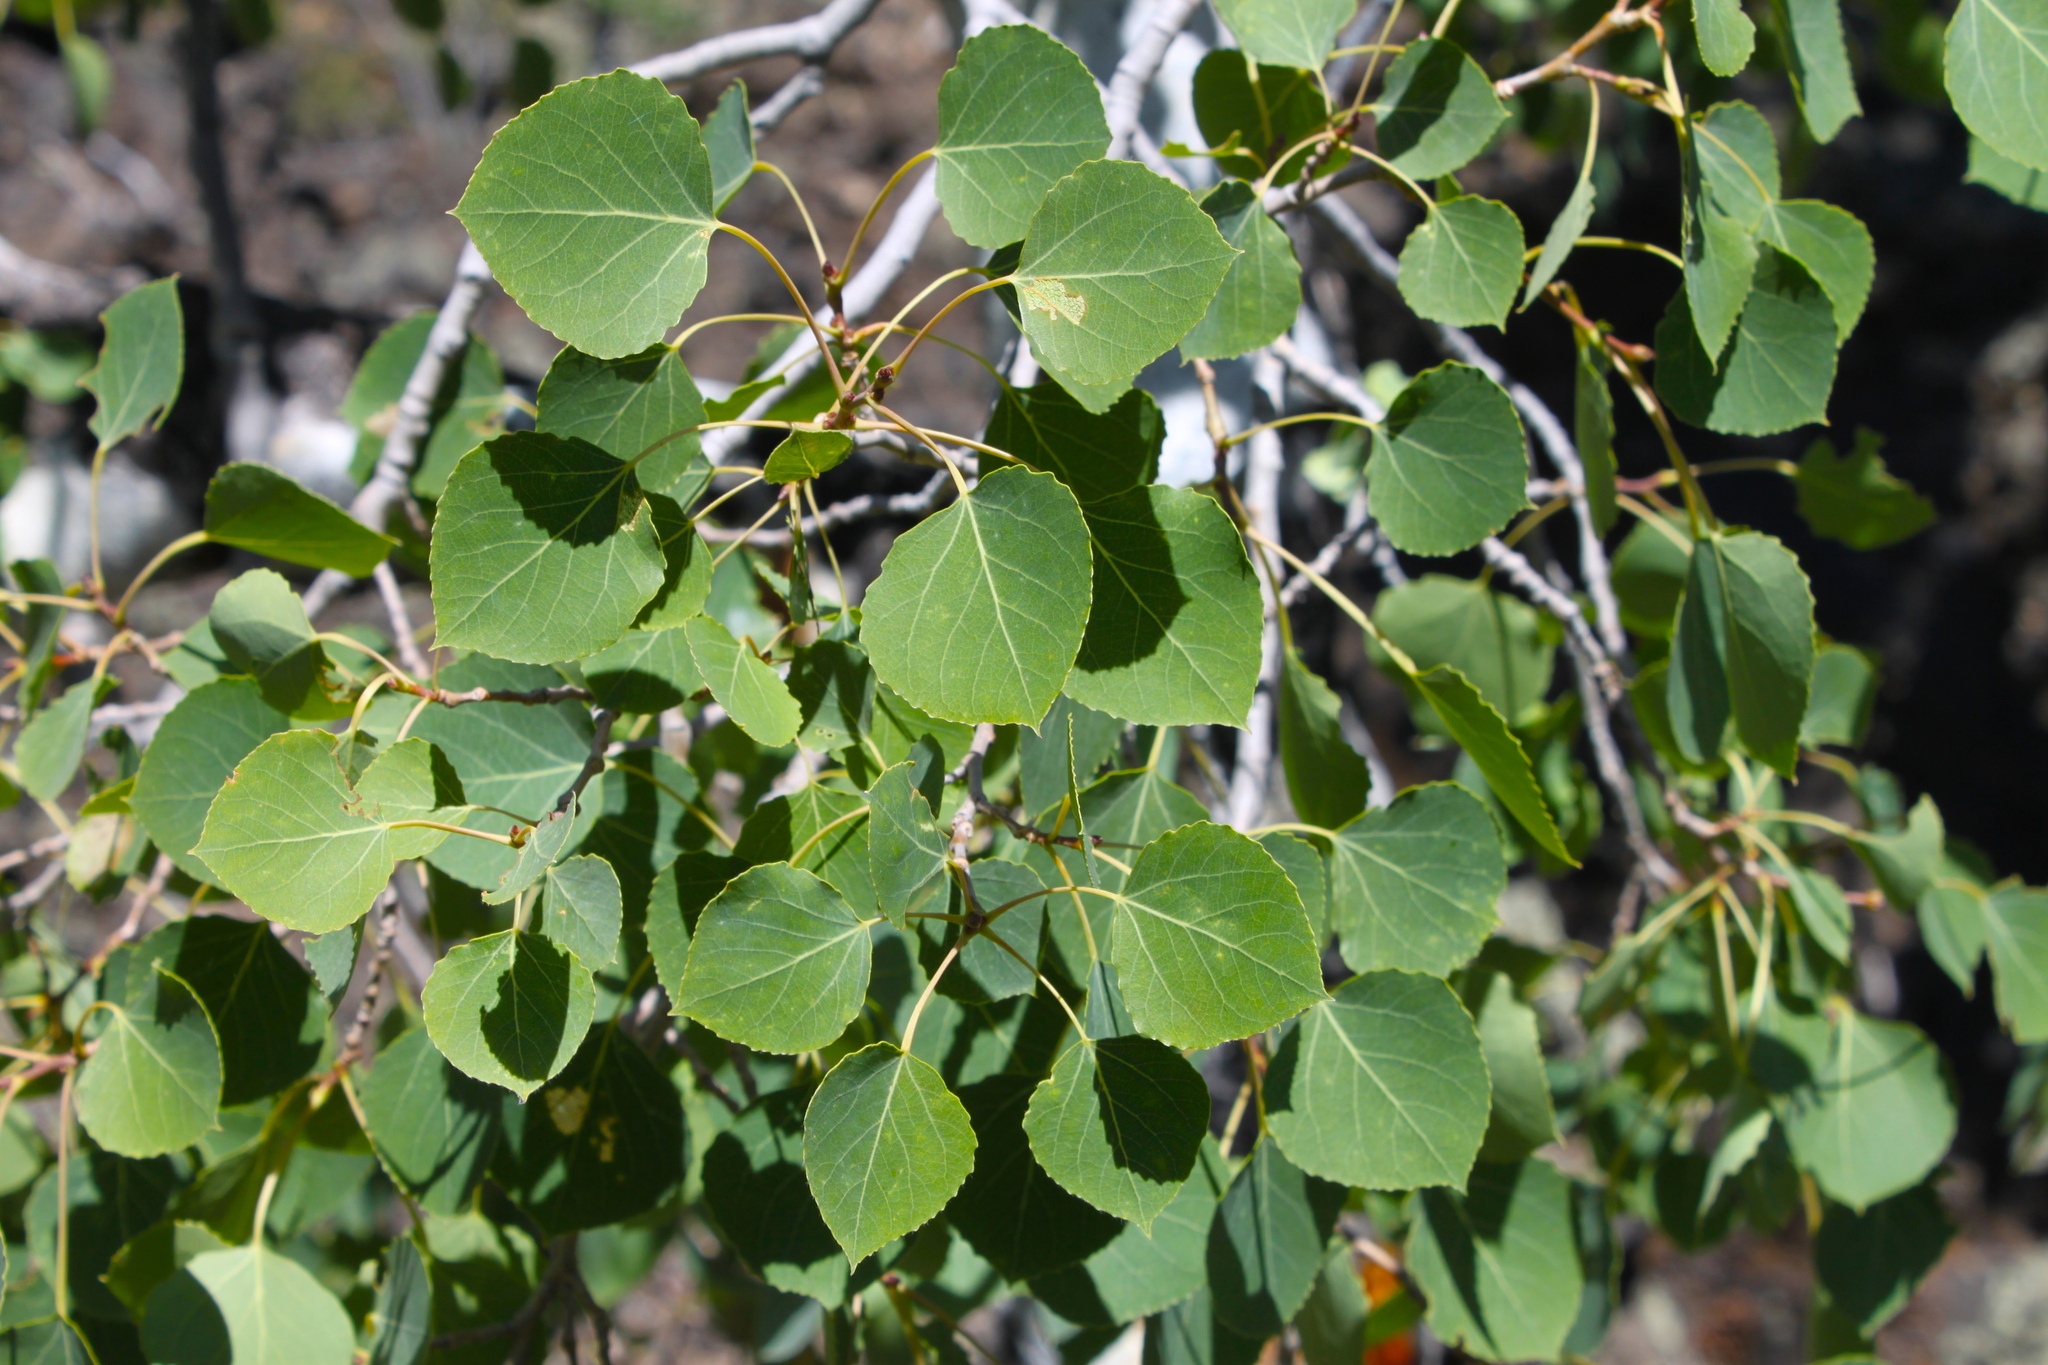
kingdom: Plantae
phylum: Tracheophyta
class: Magnoliopsida
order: Malpighiales
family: Salicaceae
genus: Populus
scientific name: Populus tremuloides
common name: Quaking aspen
